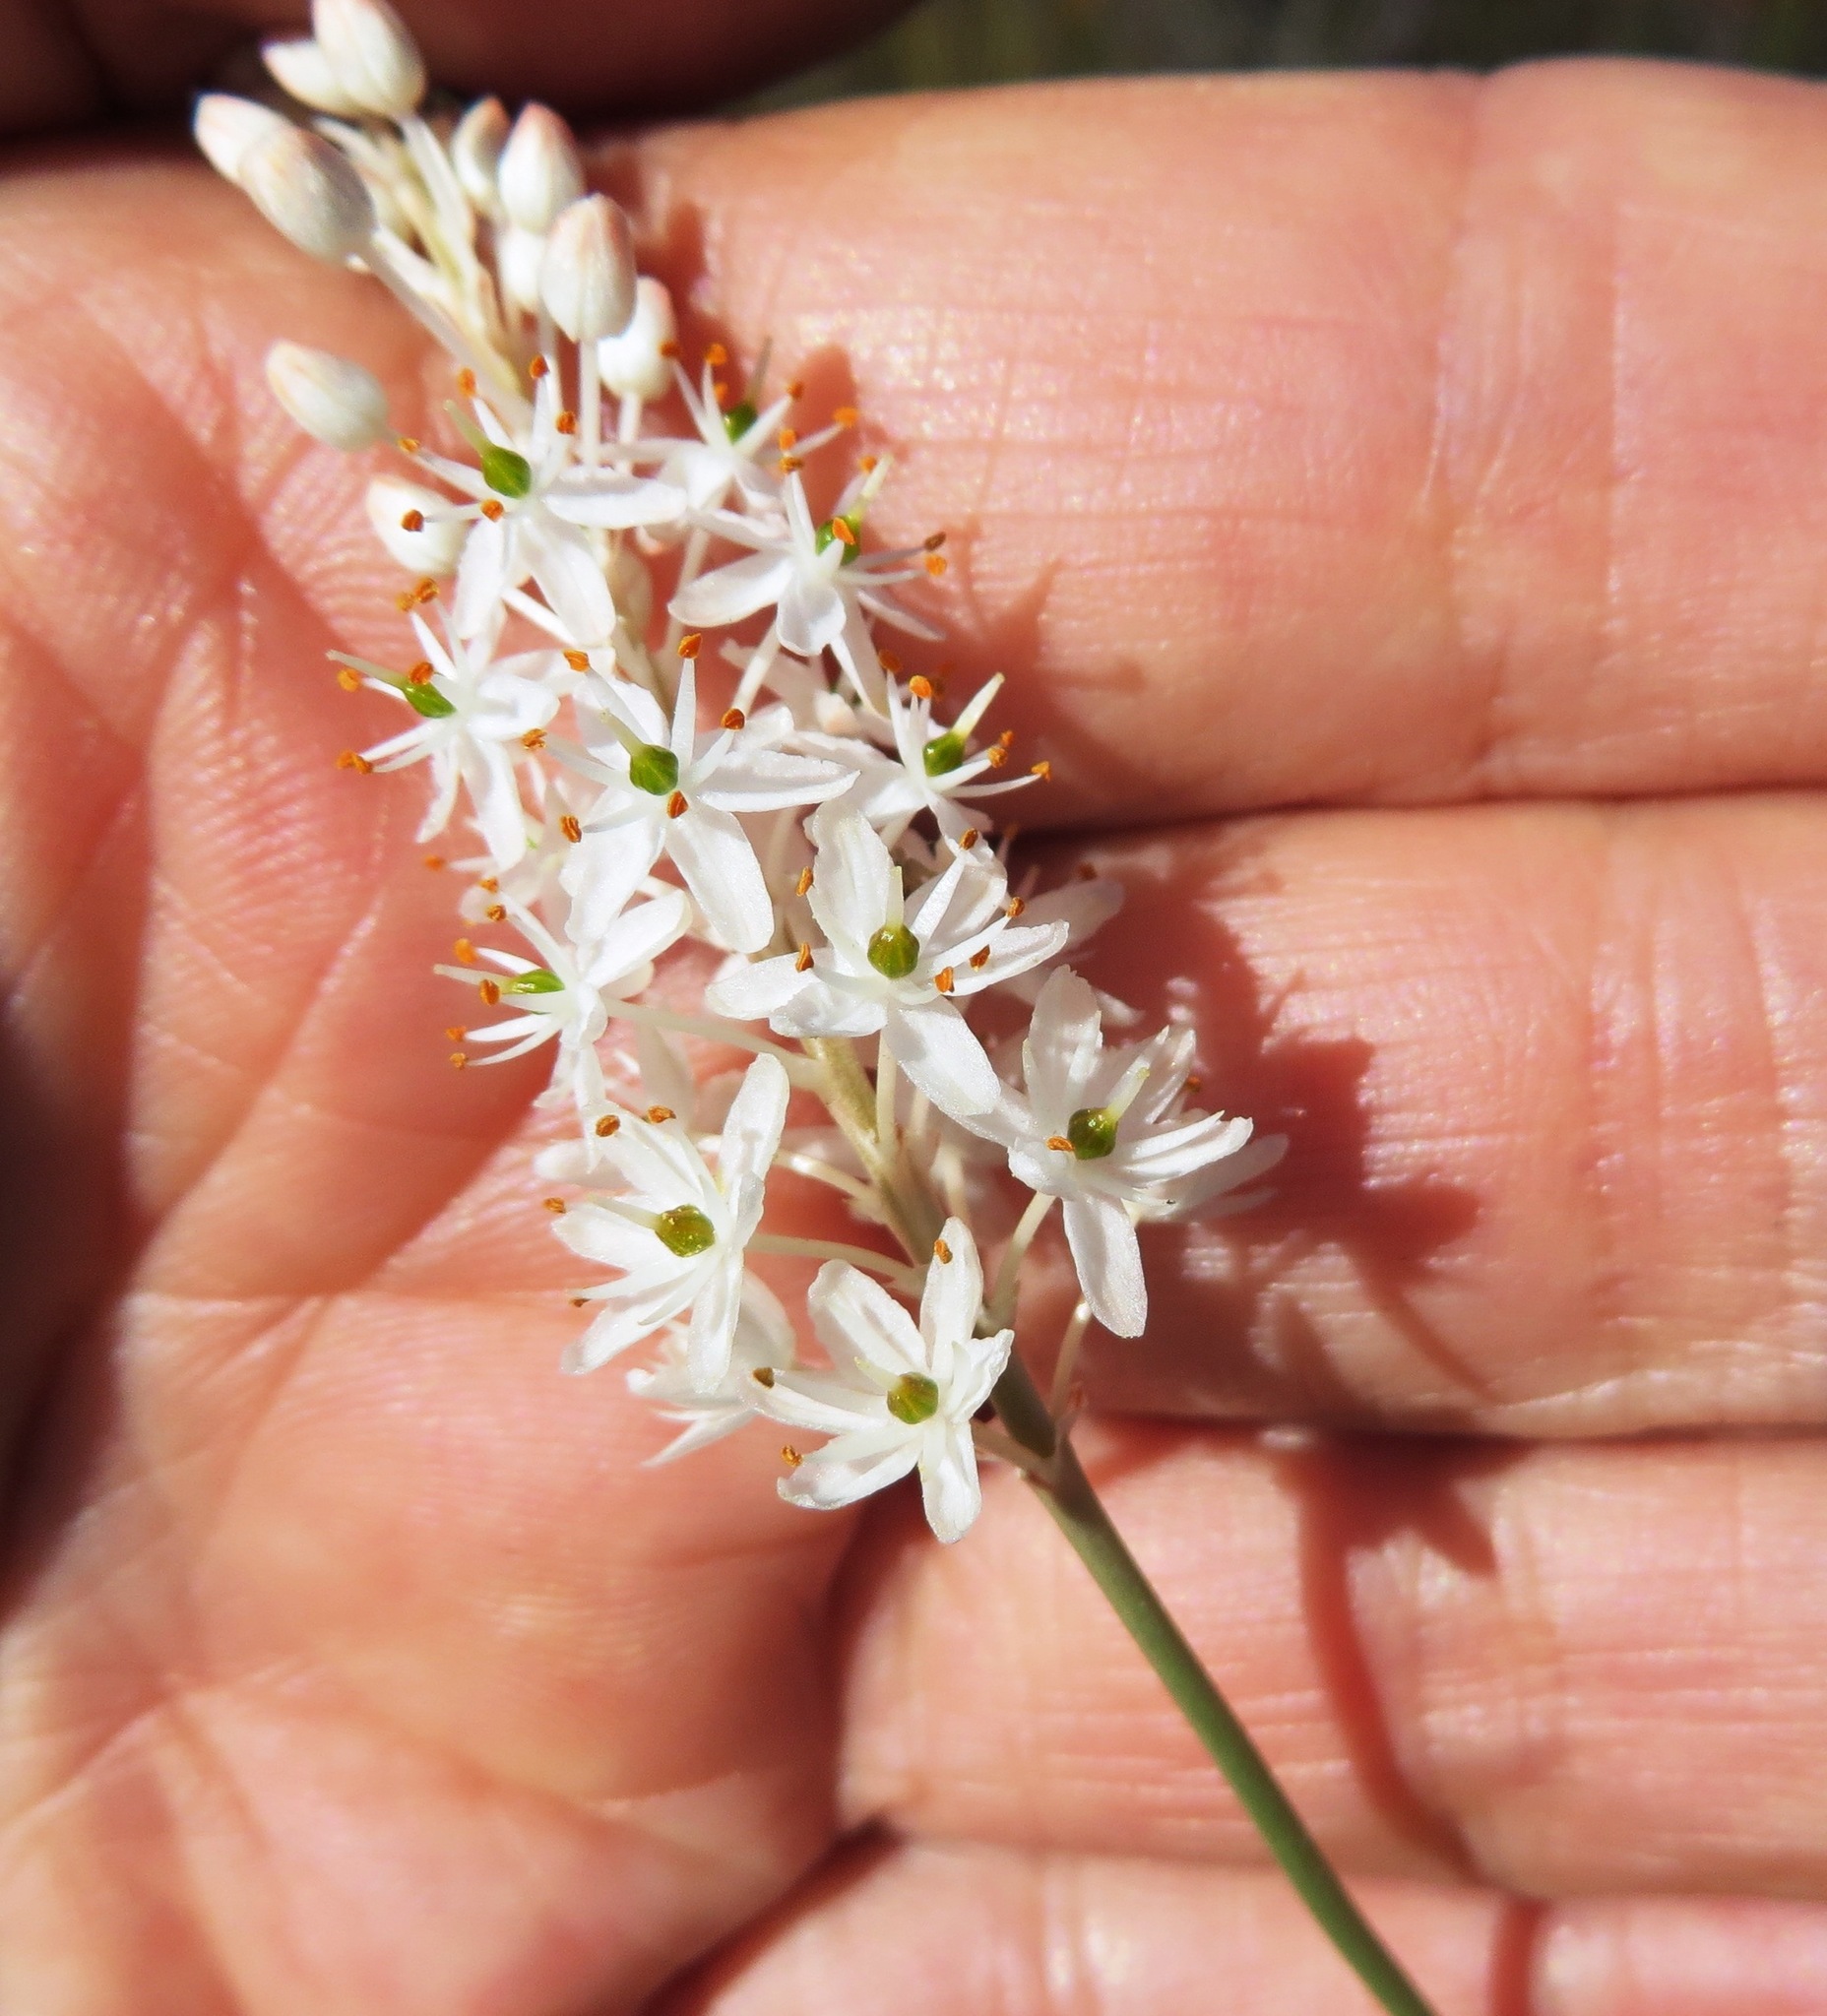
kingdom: Plantae
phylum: Tracheophyta
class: Liliopsida
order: Asparagales
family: Asphodelaceae
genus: Bulbinella
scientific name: Bulbinella trinervis
